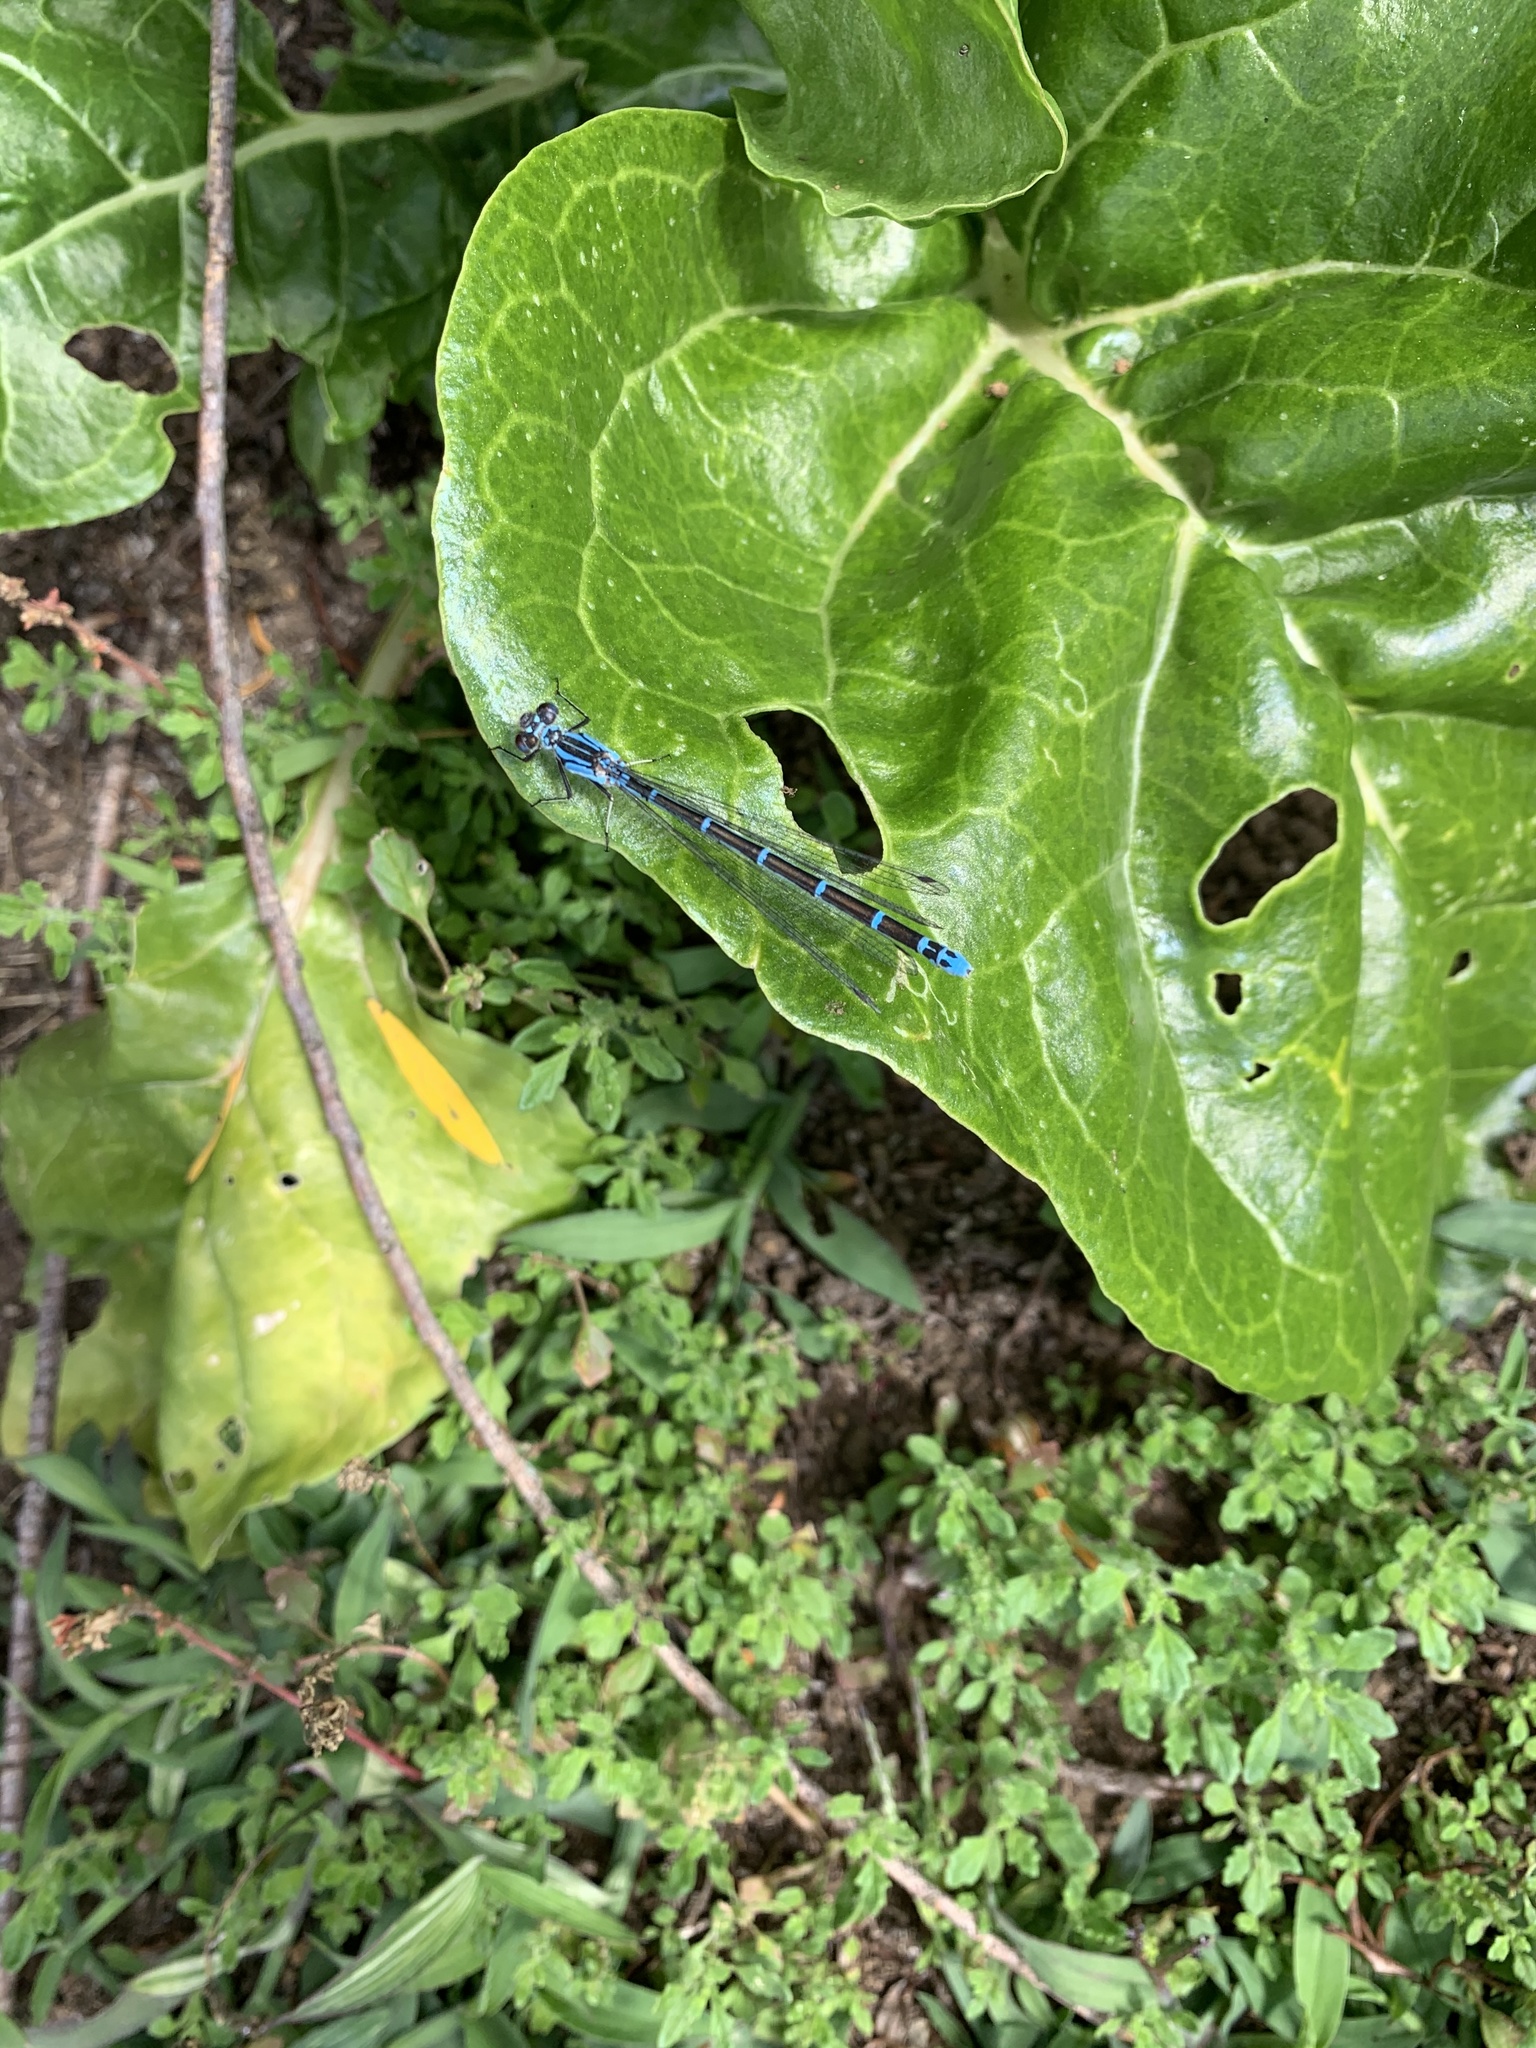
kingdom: Animalia
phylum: Arthropoda
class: Insecta
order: Odonata
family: Coenagrionidae
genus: Antiagrion
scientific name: Antiagrion gayi
